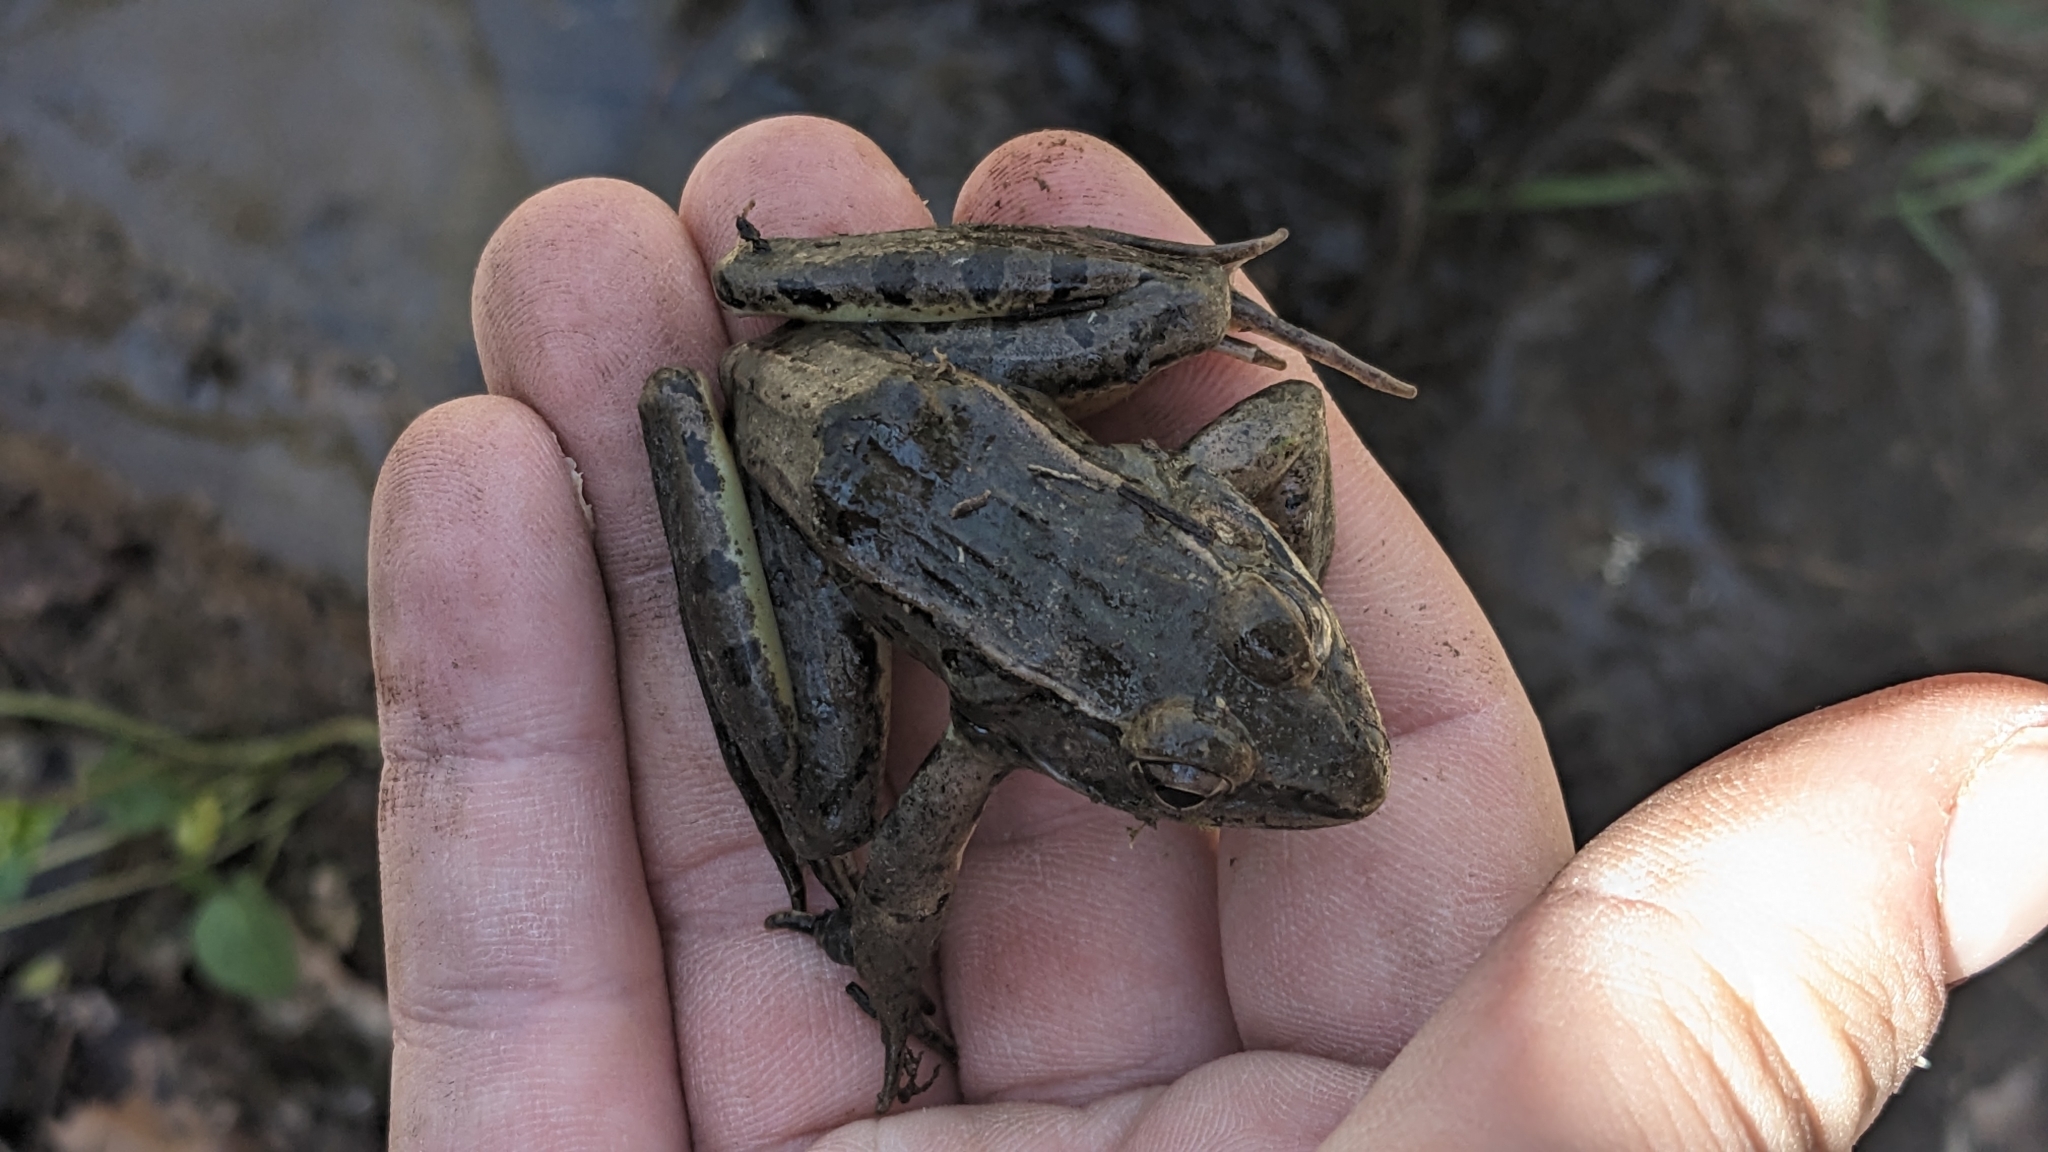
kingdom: Animalia
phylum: Chordata
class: Amphibia
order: Anura
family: Ranidae
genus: Lithobates
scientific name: Lithobates sphenocephalus
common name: Southern leopard frog
